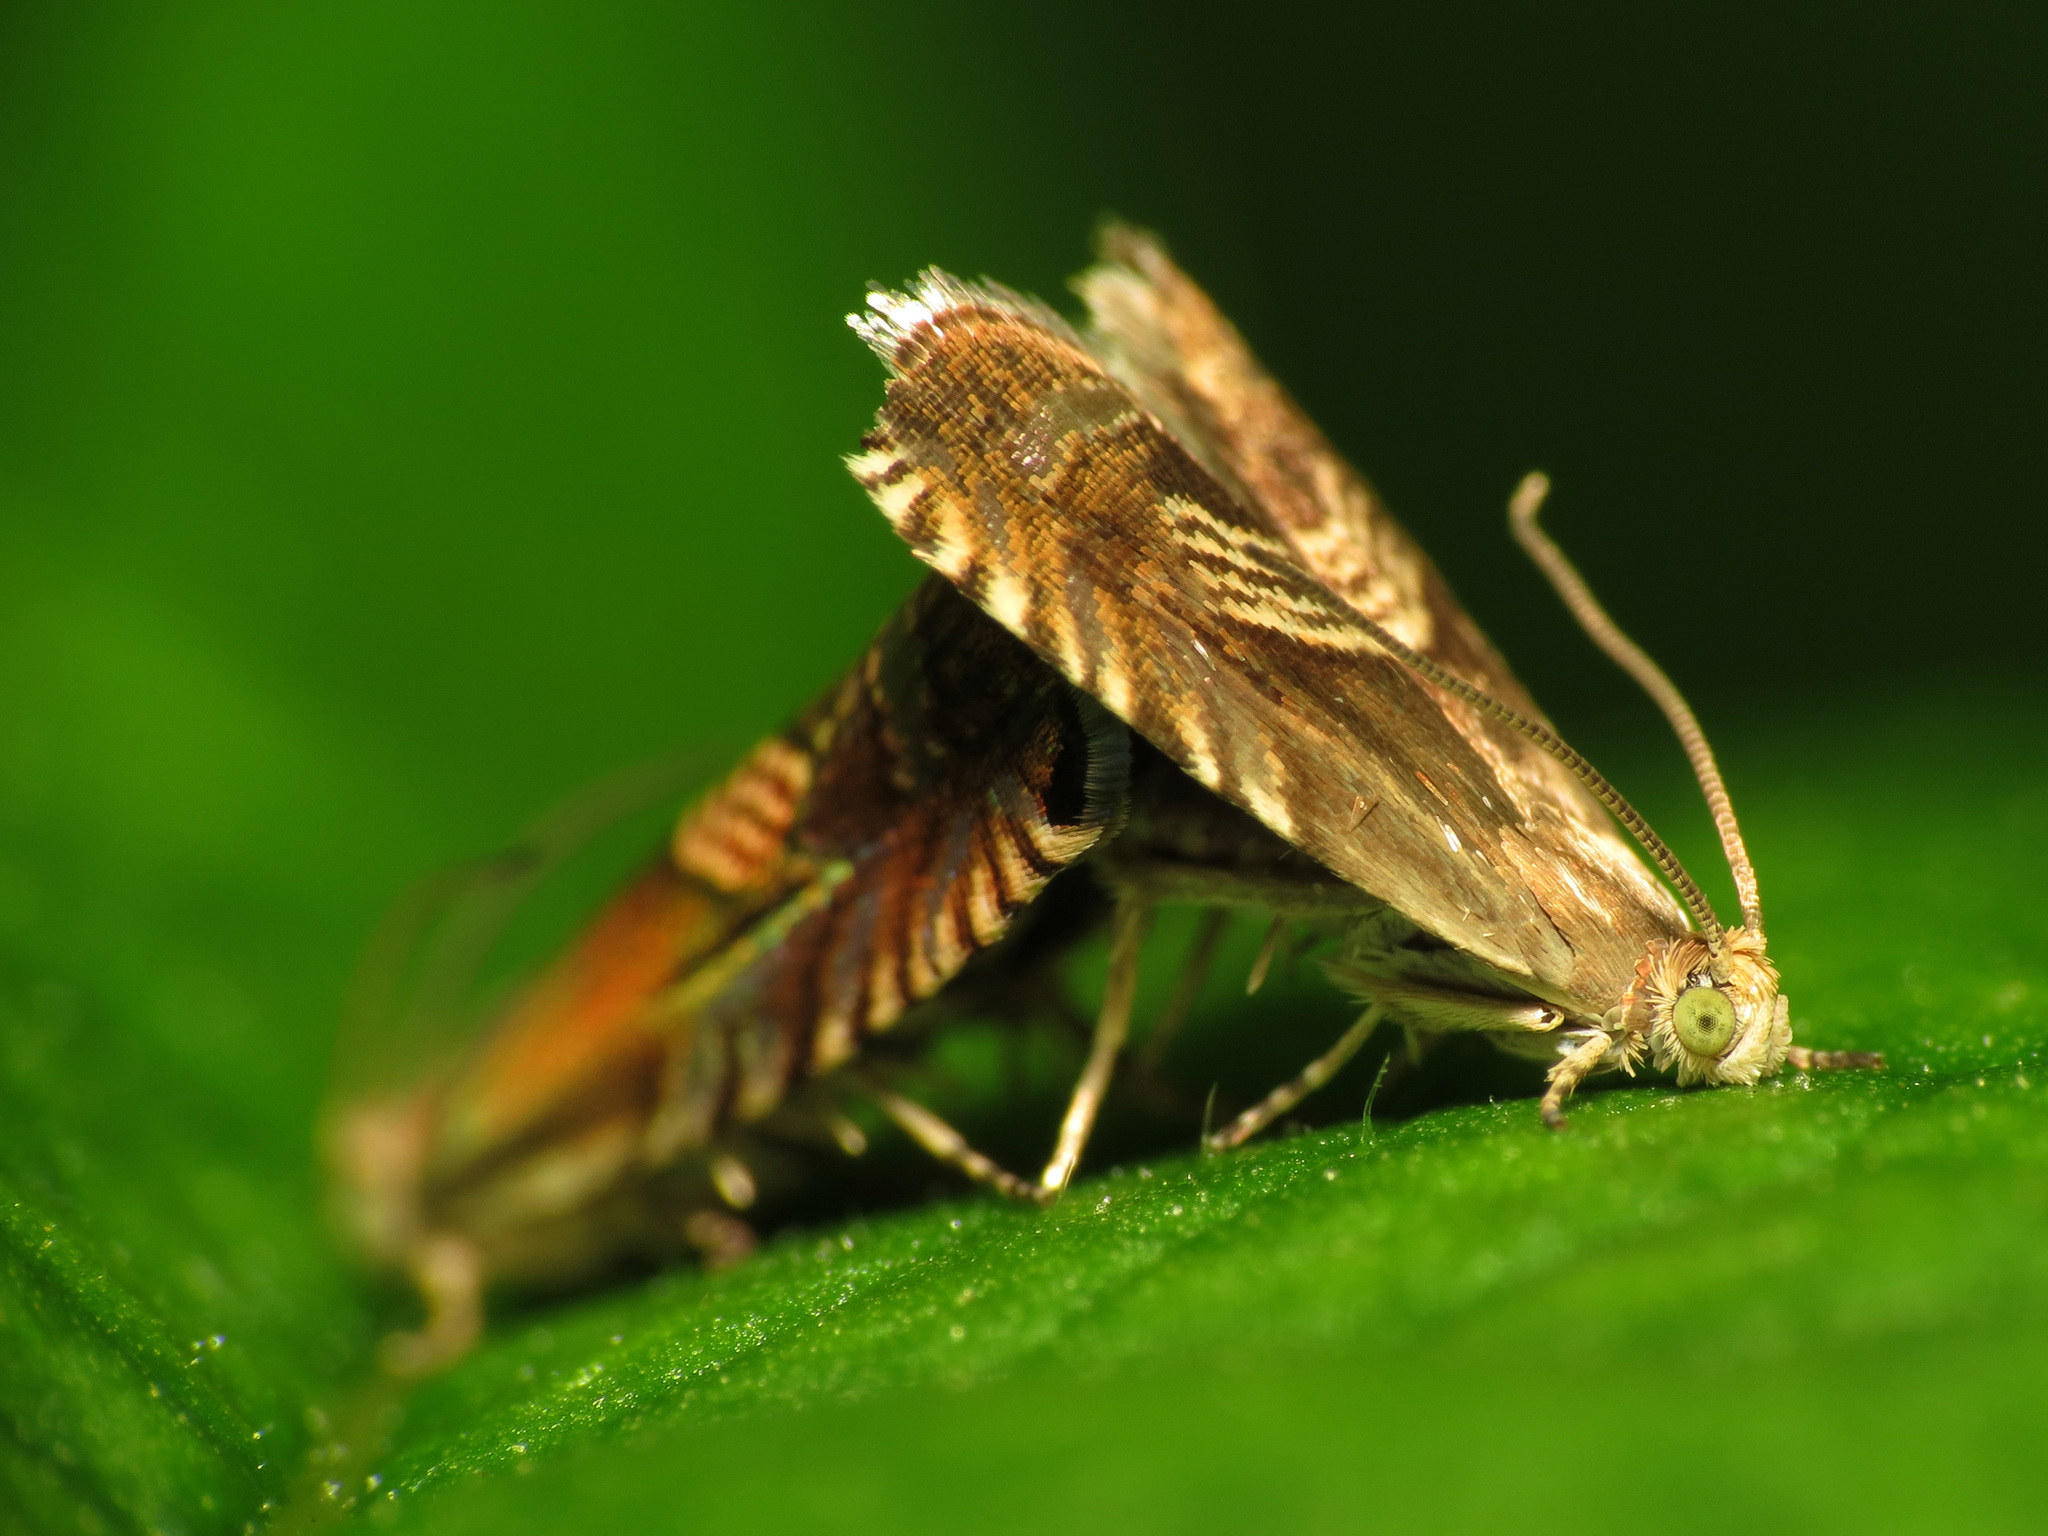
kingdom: Animalia
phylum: Arthropoda
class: Insecta
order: Lepidoptera
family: Tortricidae
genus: Grapholita
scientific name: Grapholita tristrigana
